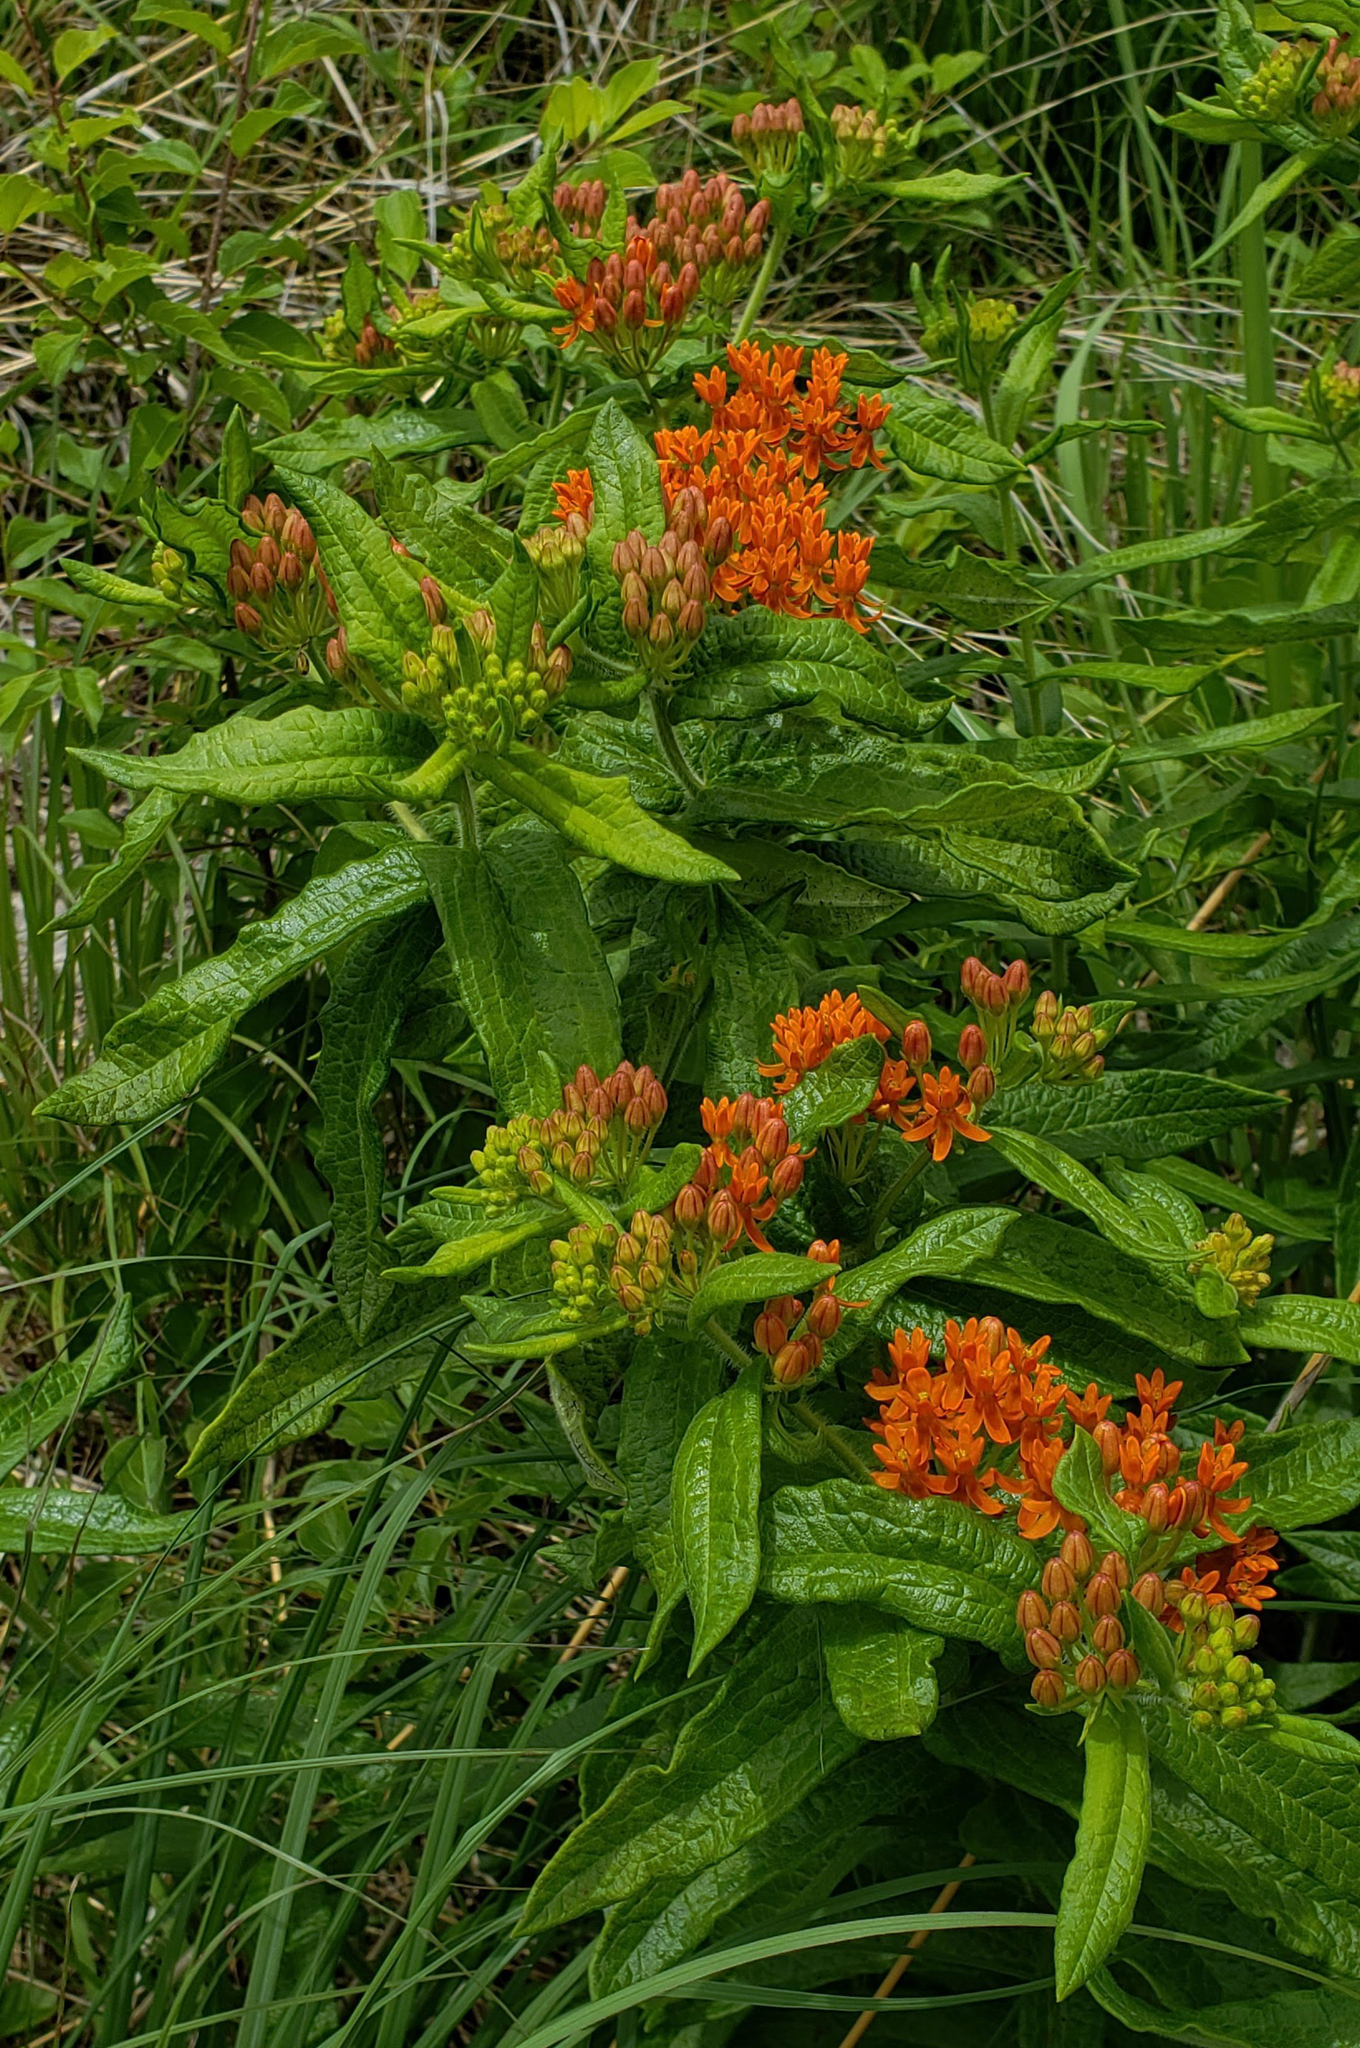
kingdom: Plantae
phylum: Tracheophyta
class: Magnoliopsida
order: Gentianales
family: Apocynaceae
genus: Asclepias
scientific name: Asclepias tuberosa
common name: Butterfly milkweed
